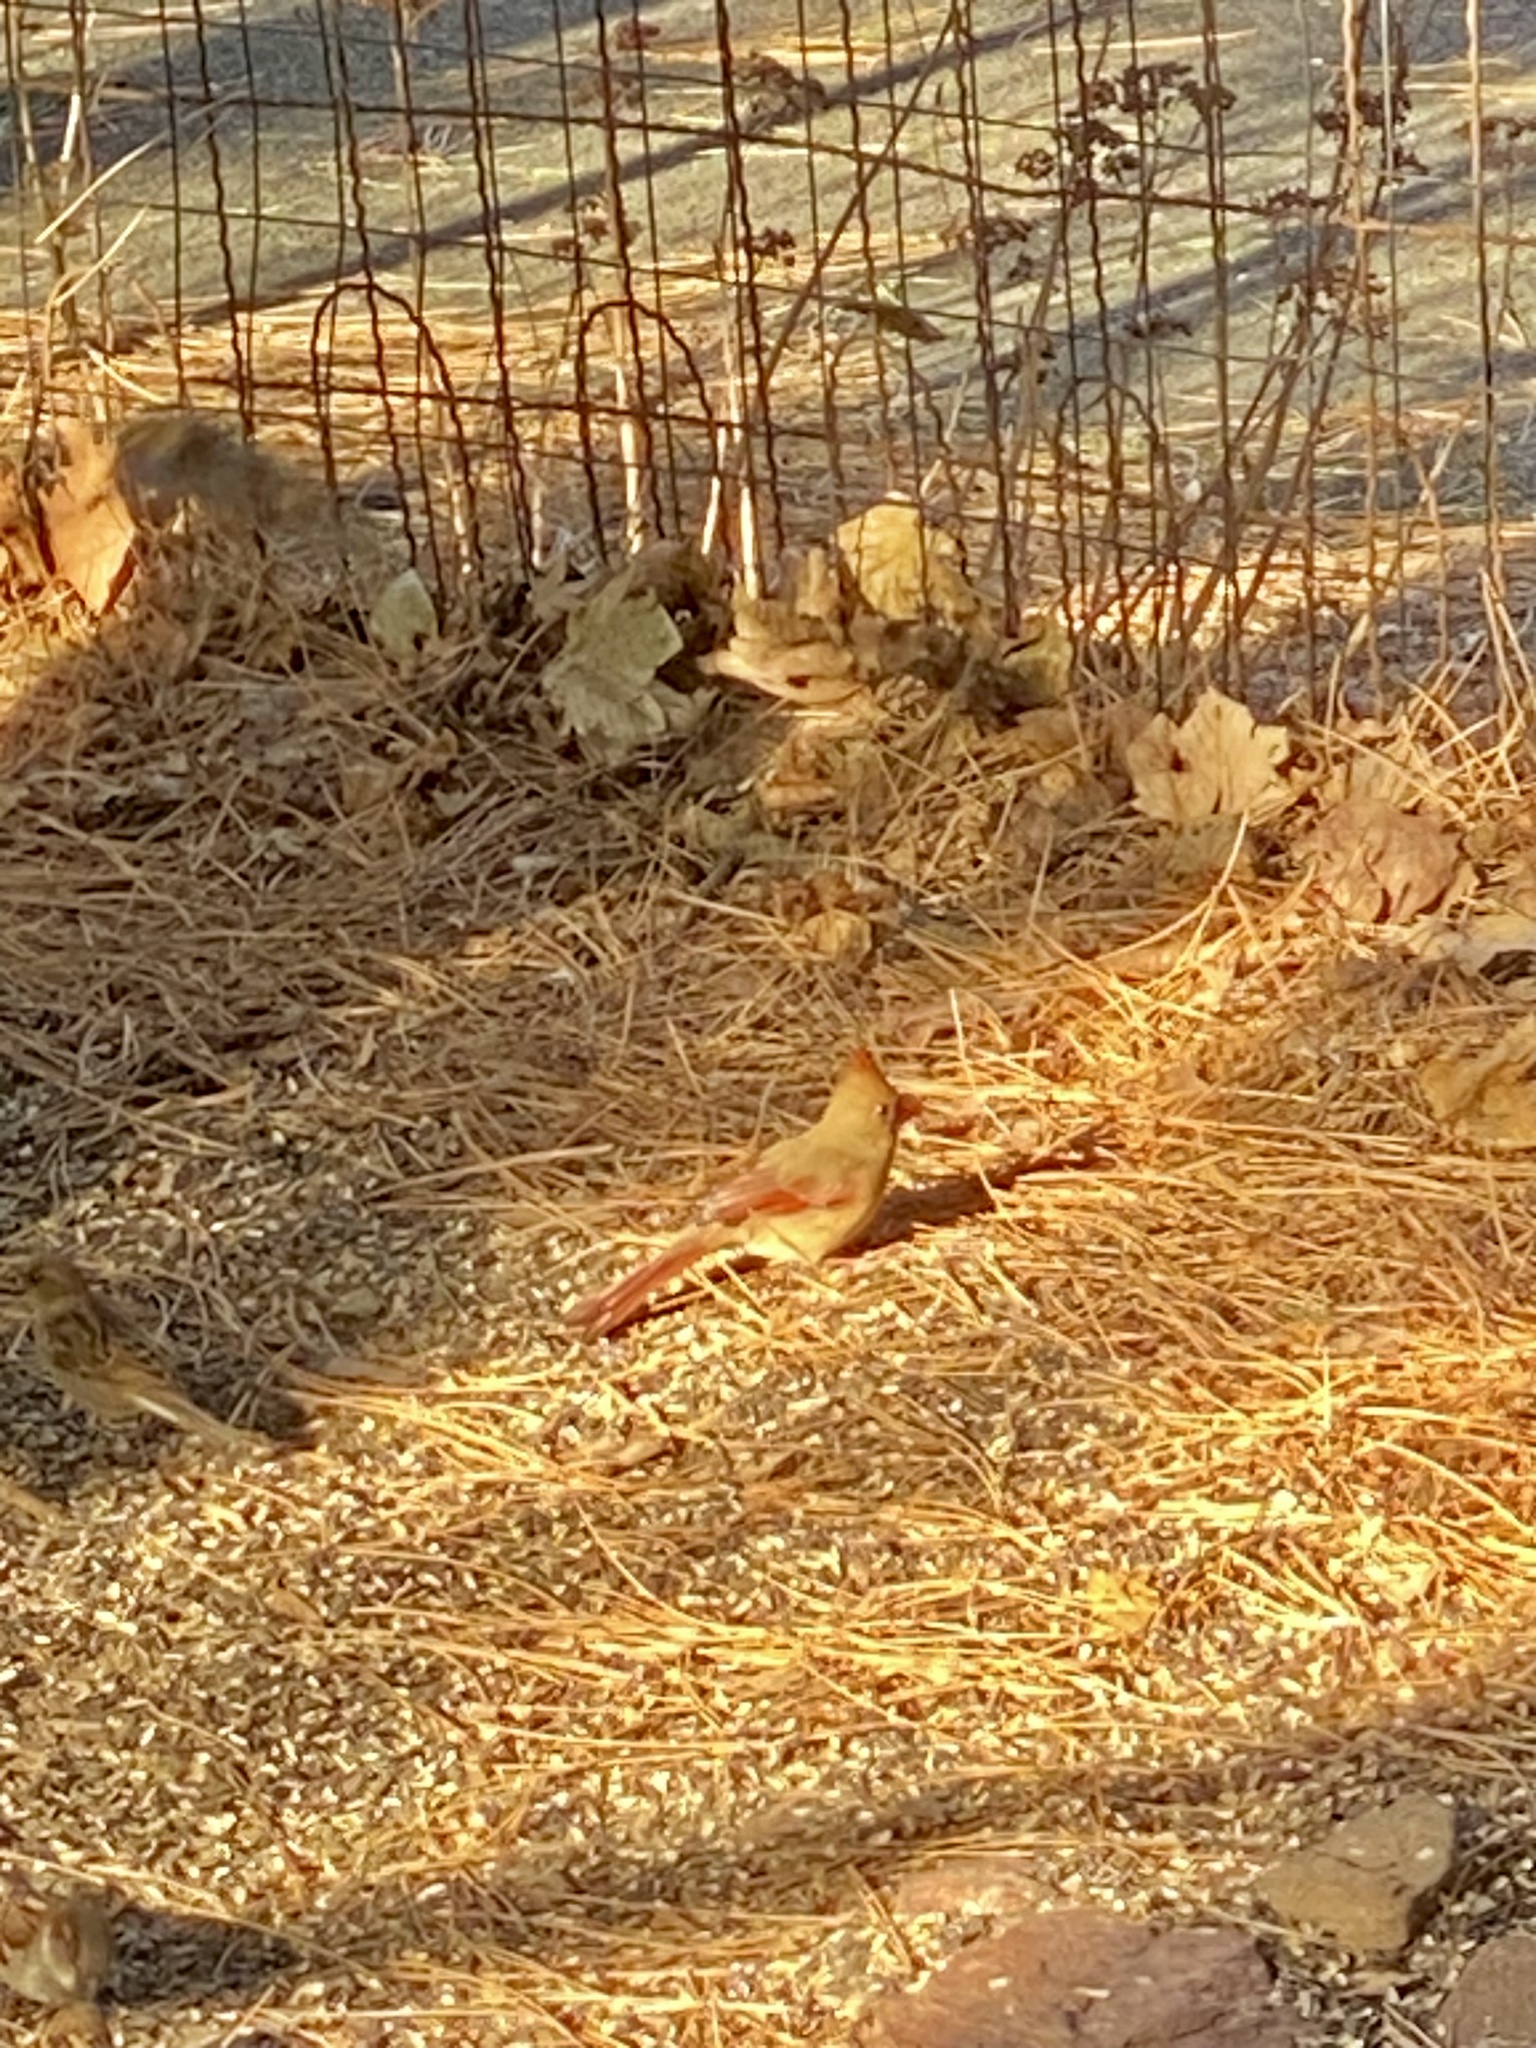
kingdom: Animalia
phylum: Chordata
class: Aves
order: Passeriformes
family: Cardinalidae
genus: Cardinalis
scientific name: Cardinalis cardinalis
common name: Northern cardinal
